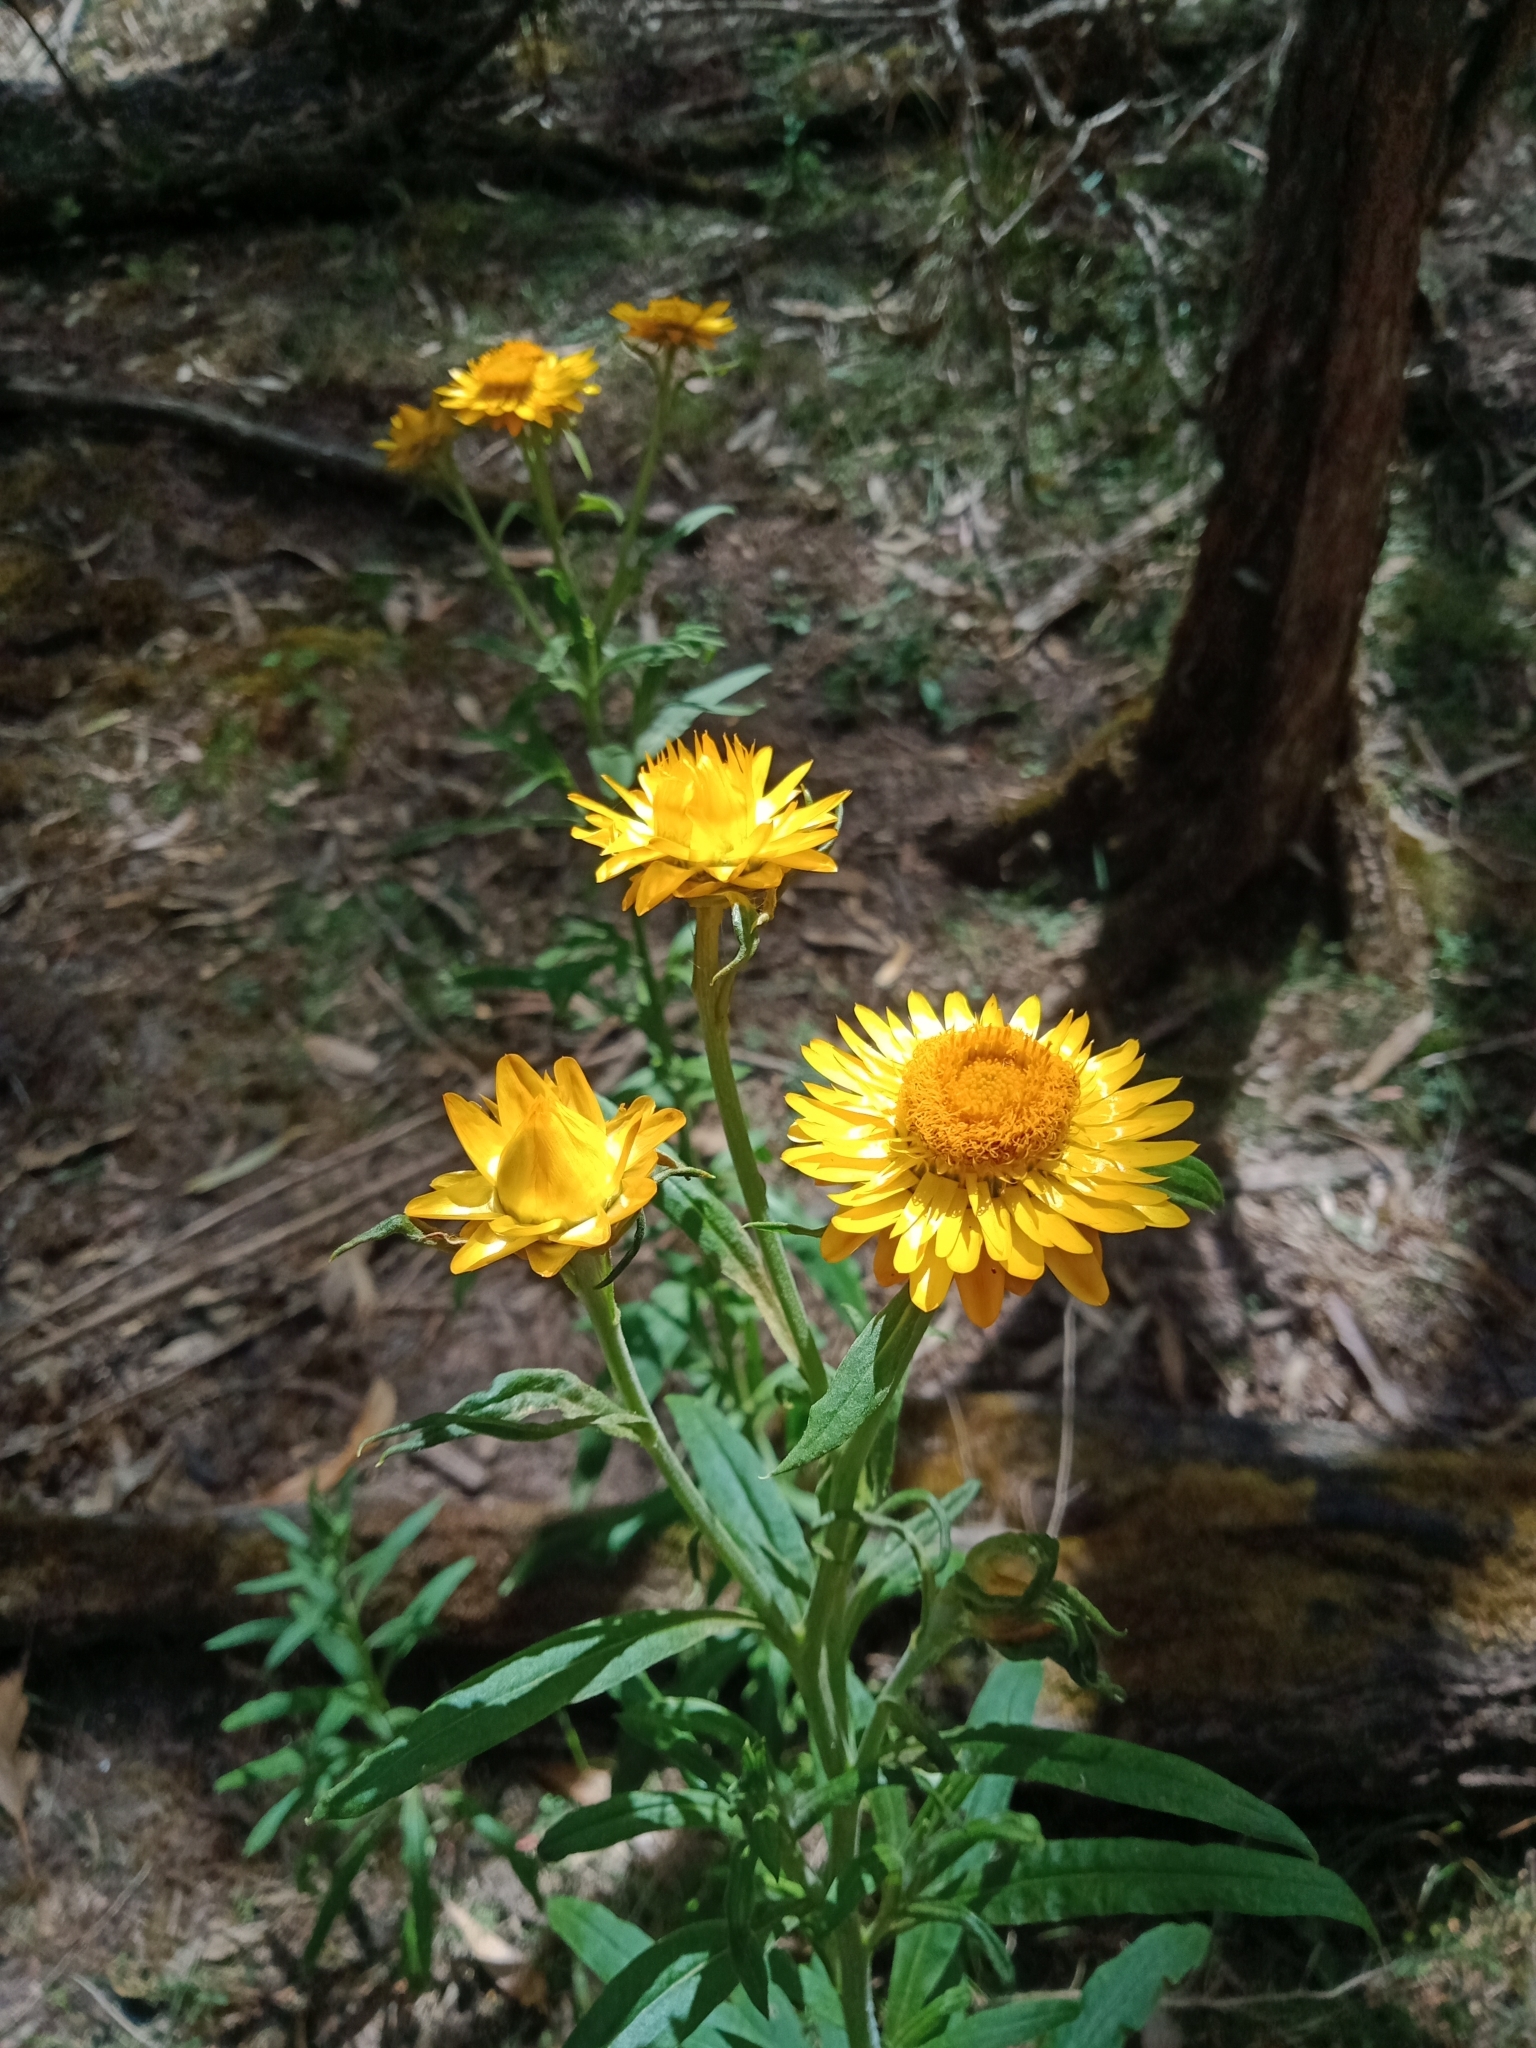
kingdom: Plantae
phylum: Tracheophyta
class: Magnoliopsida
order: Asterales
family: Asteraceae
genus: Xerochrysum
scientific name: Xerochrysum bracteatum
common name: Bracted strawflower
